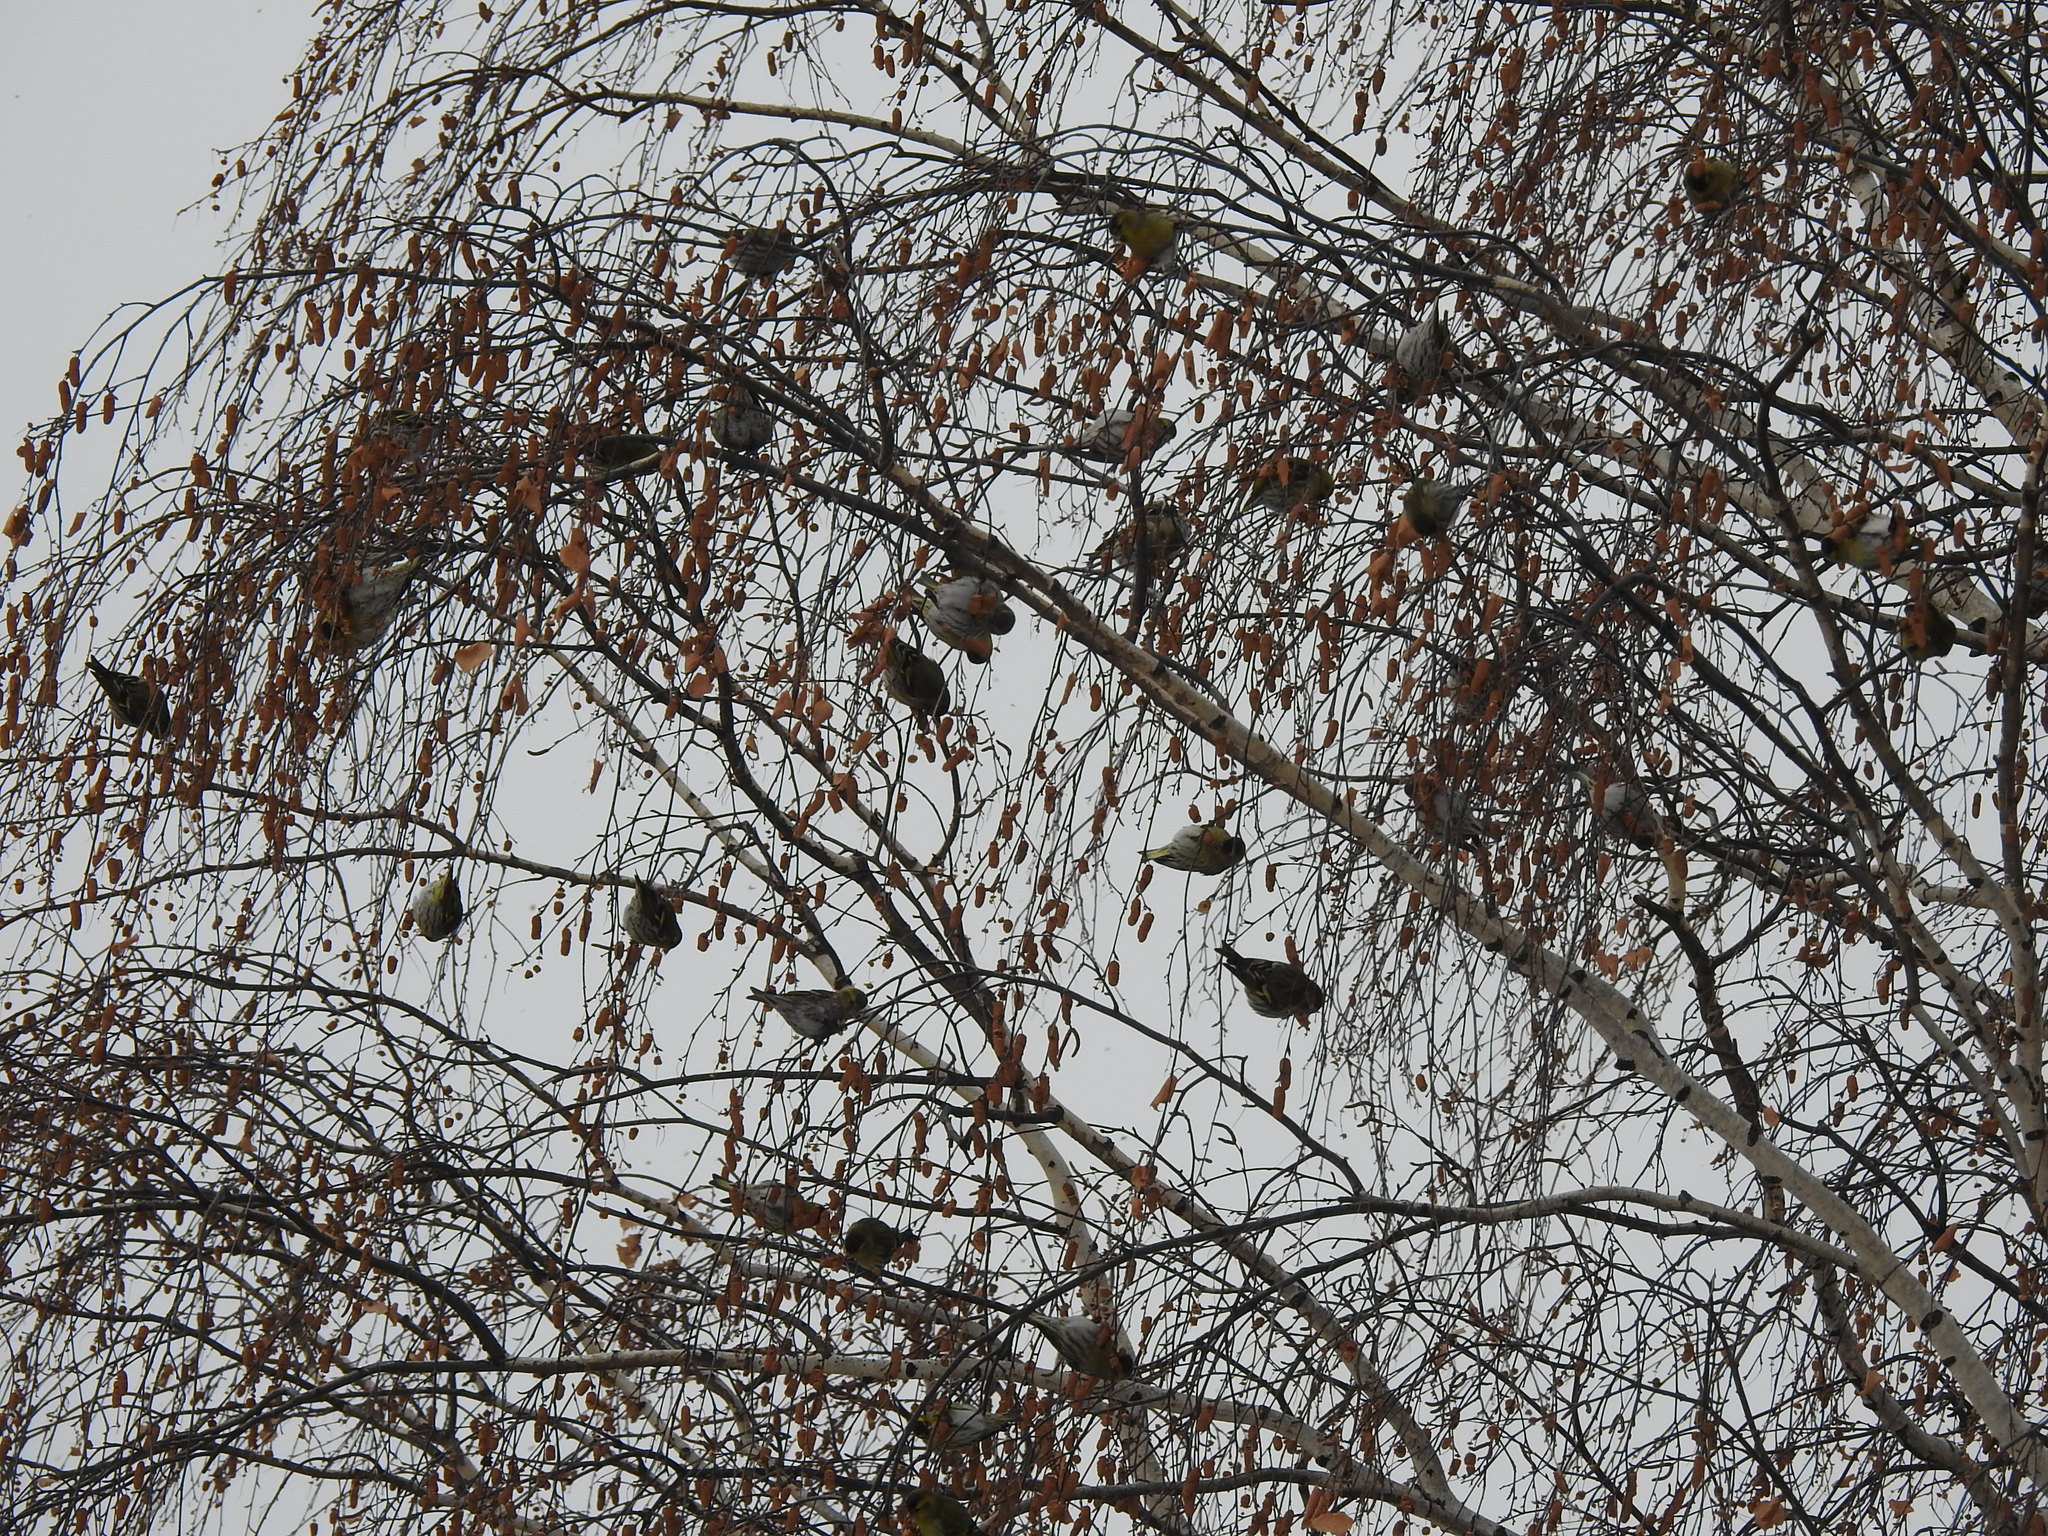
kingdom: Animalia
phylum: Chordata
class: Aves
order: Passeriformes
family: Fringillidae
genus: Spinus
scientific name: Spinus spinus
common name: Eurasian siskin
